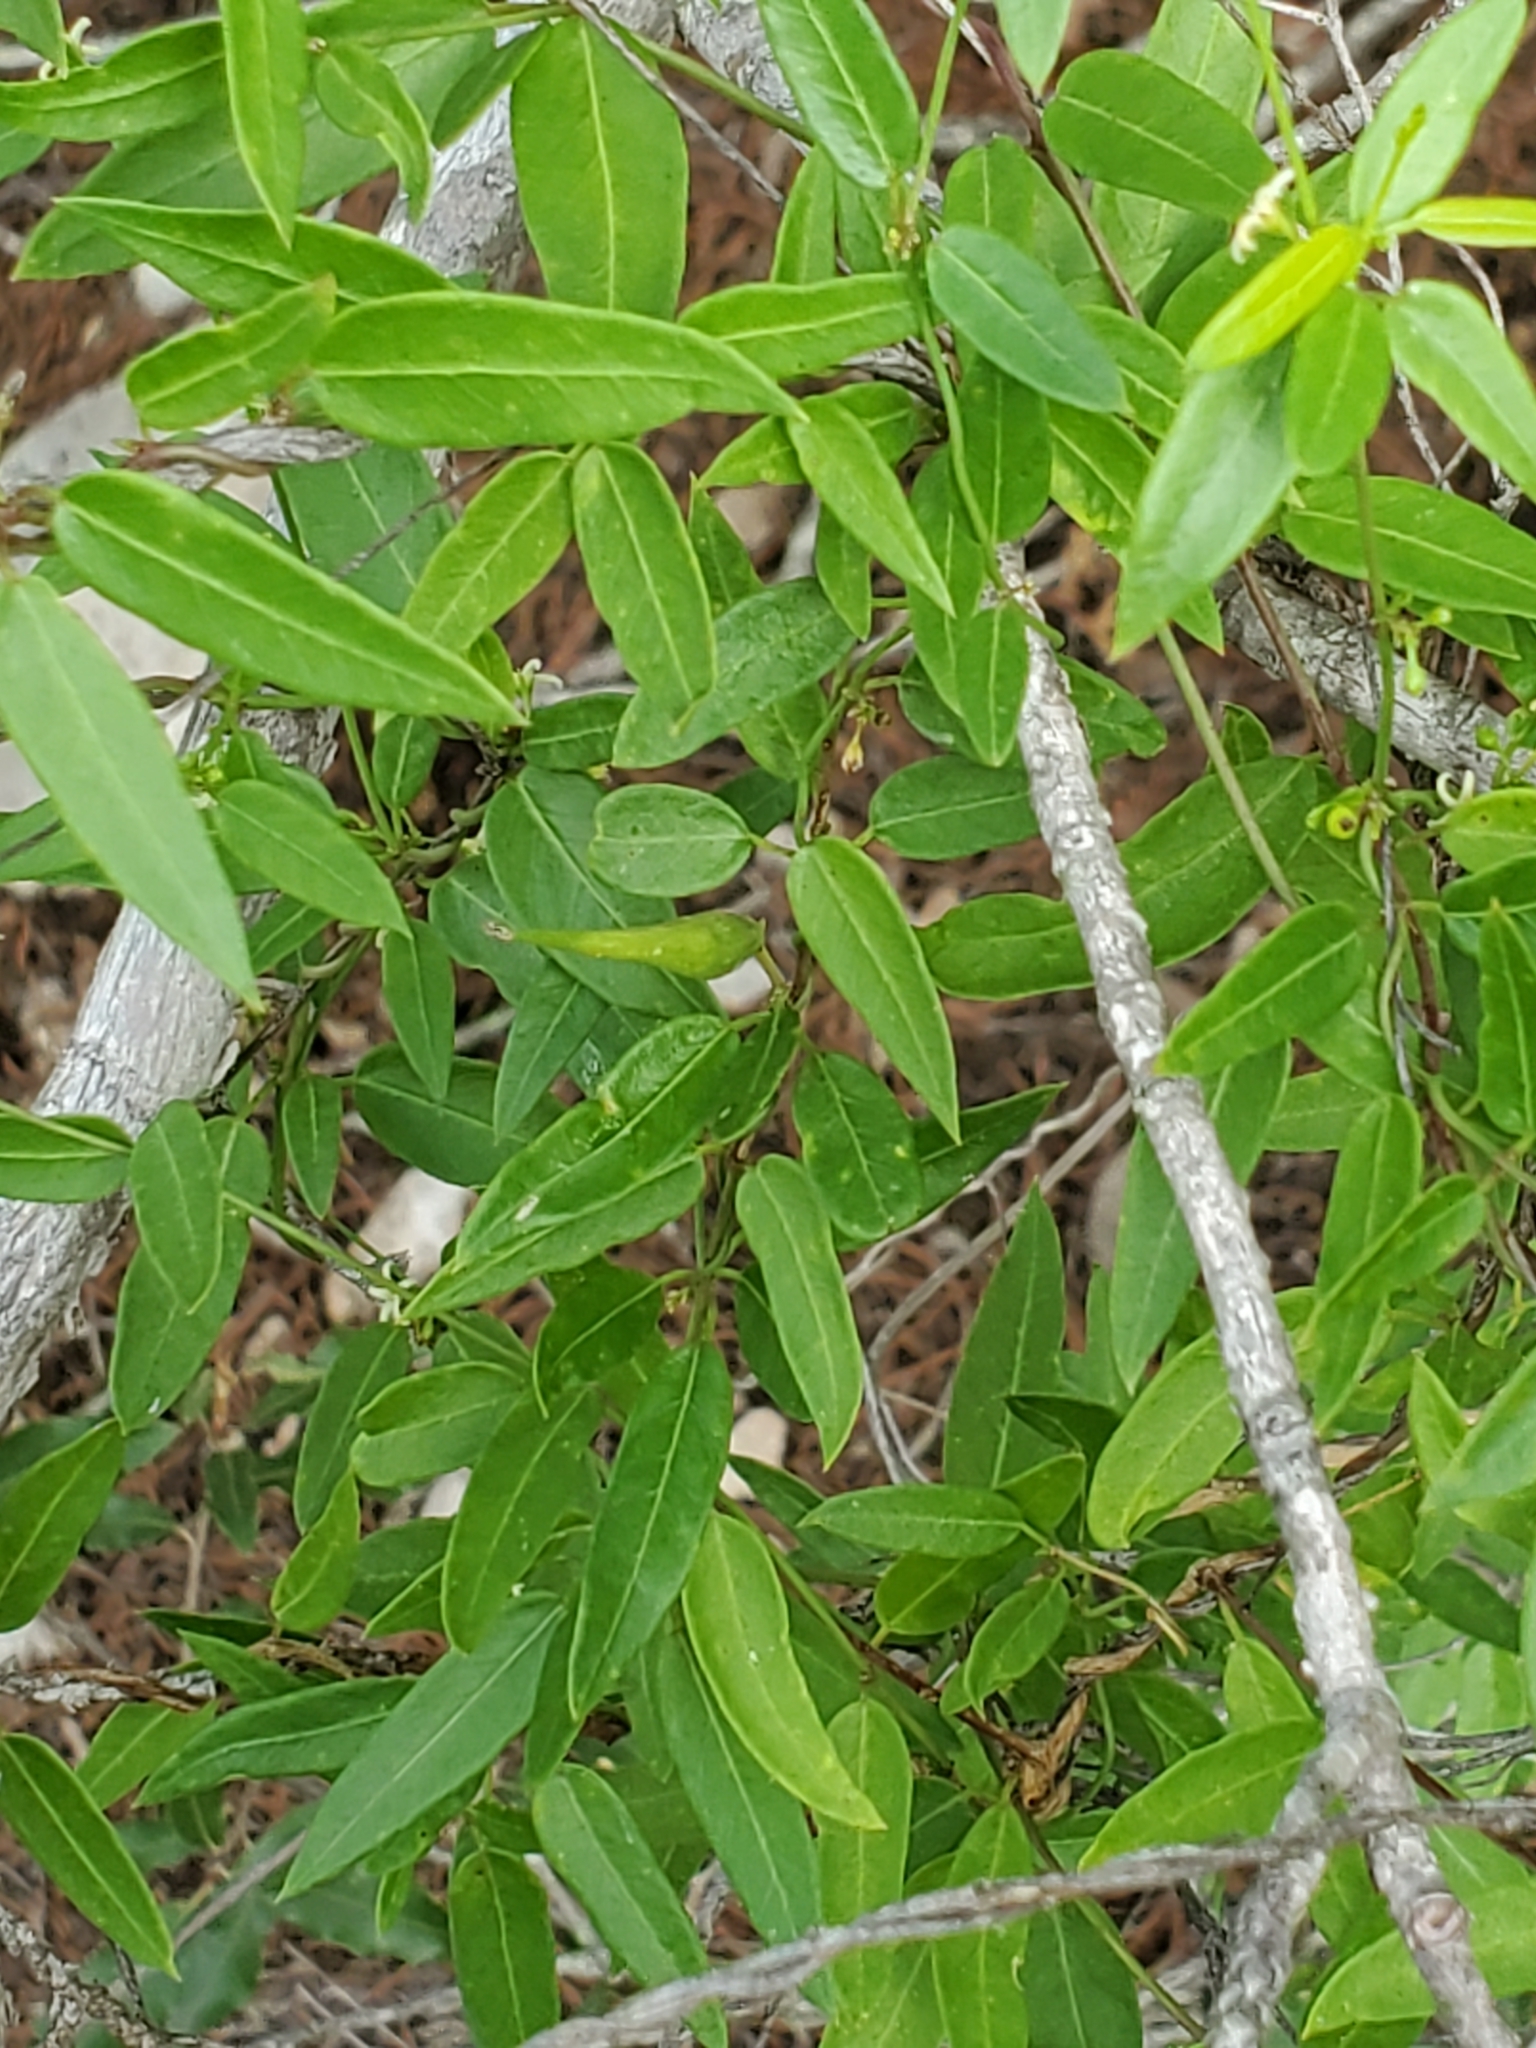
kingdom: Plantae
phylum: Tracheophyta
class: Magnoliopsida
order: Gentianales
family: Apocynaceae
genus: Metastelma
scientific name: Metastelma palmeri
